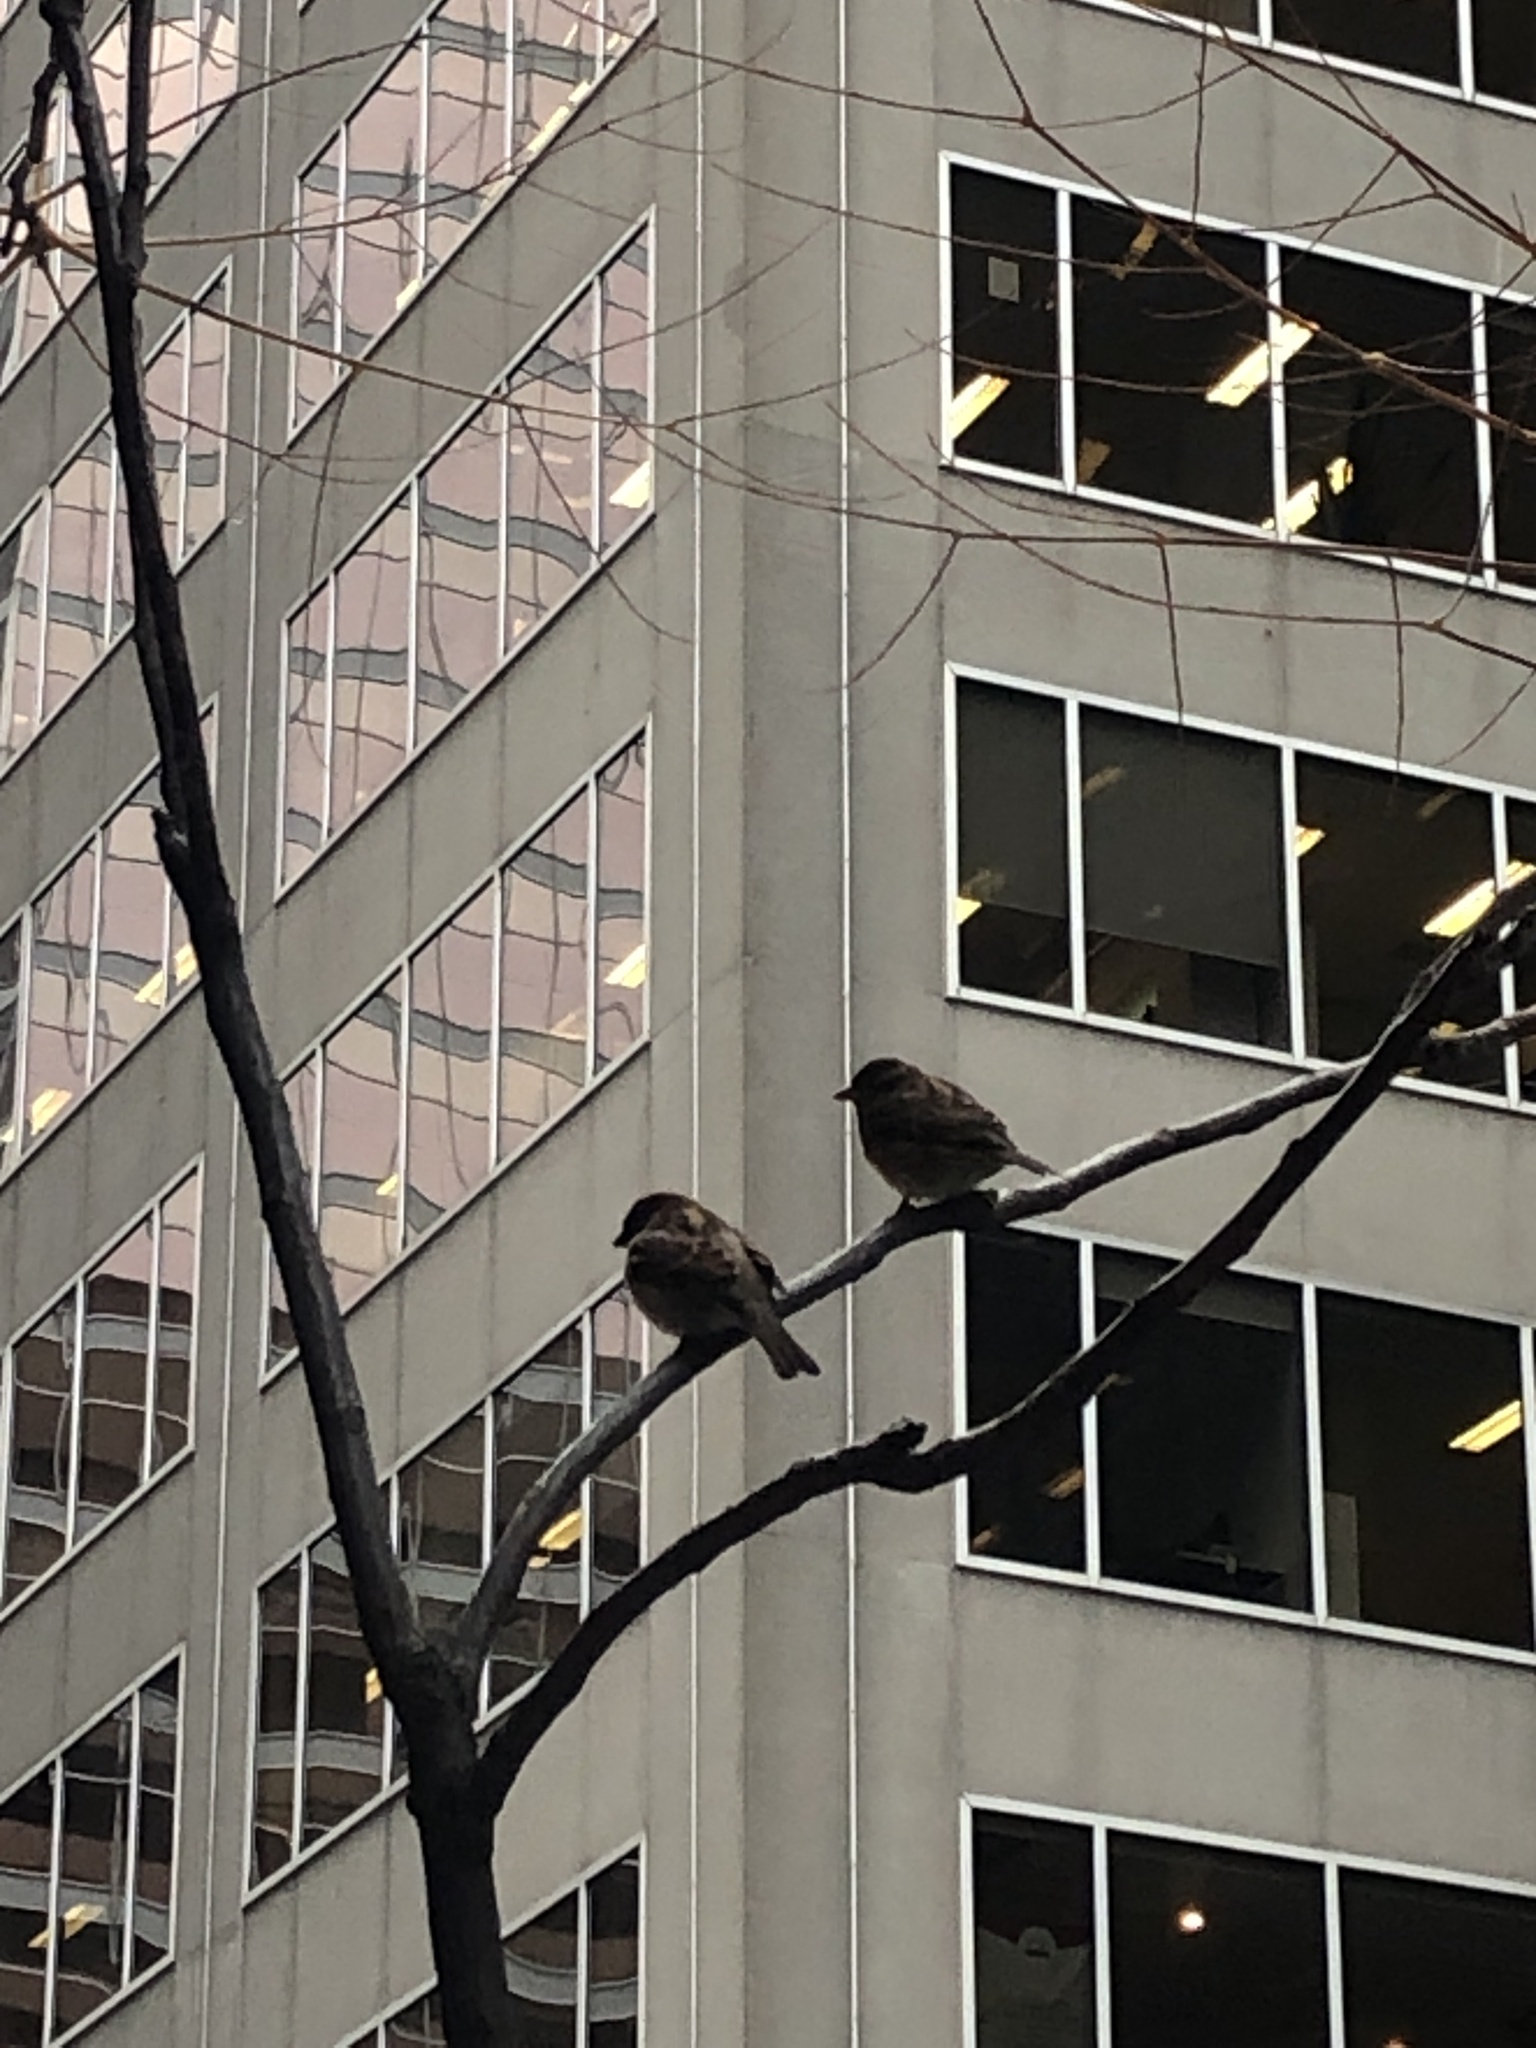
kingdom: Animalia
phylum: Chordata
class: Aves
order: Passeriformes
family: Passeridae
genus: Passer
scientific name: Passer domesticus
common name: House sparrow
